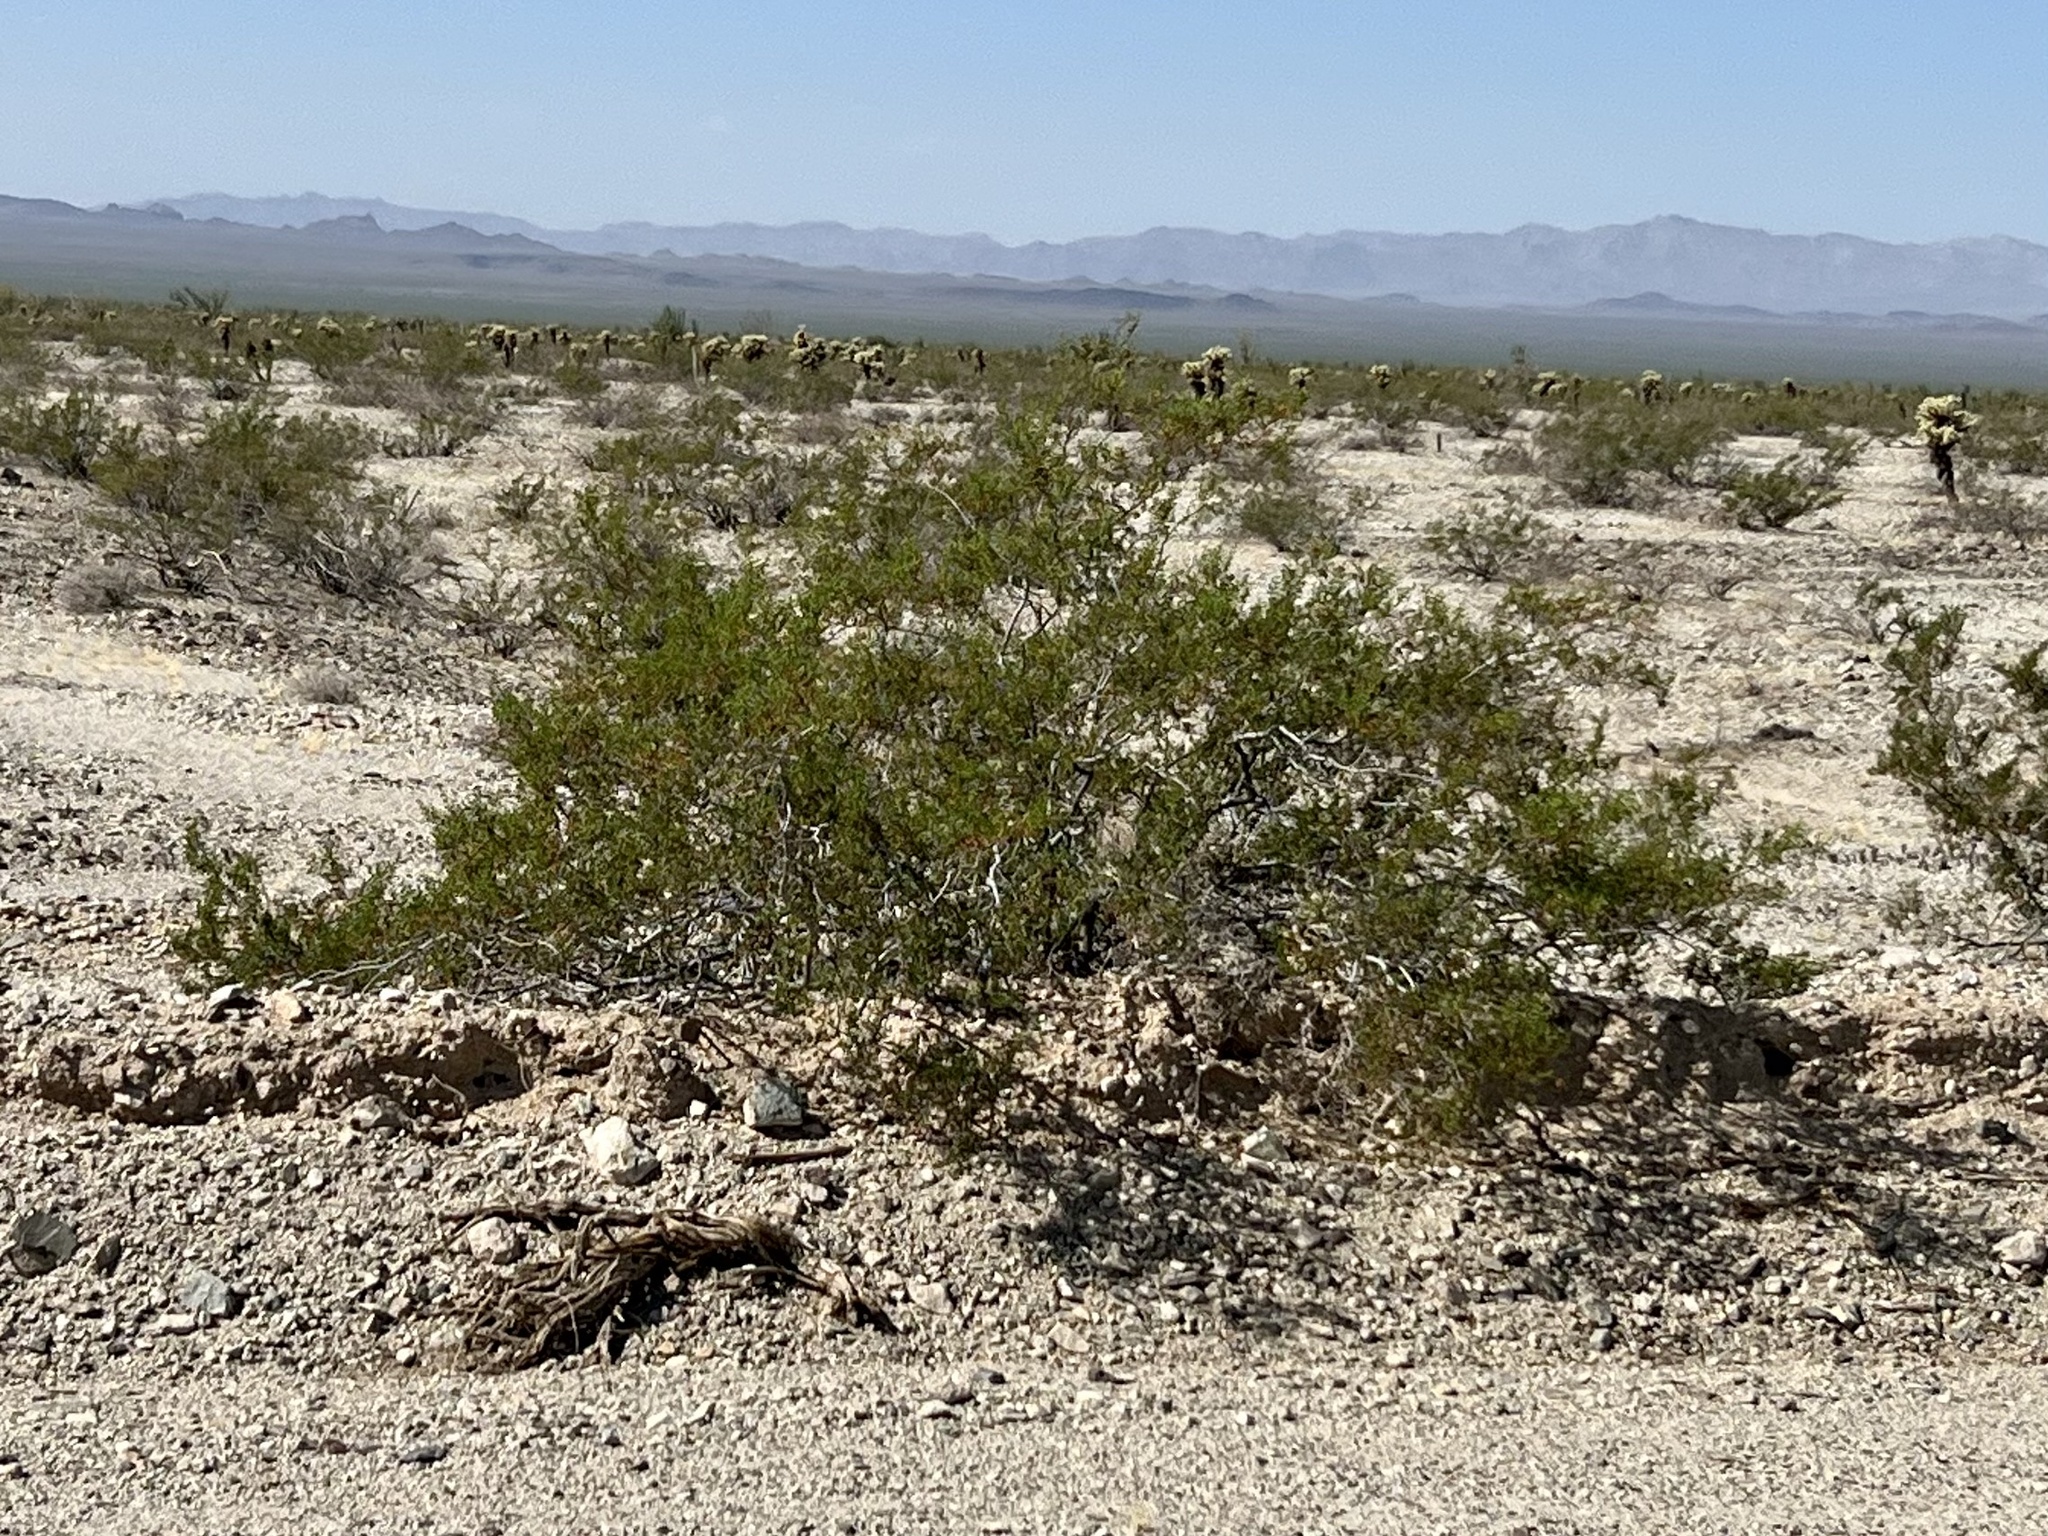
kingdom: Plantae
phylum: Tracheophyta
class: Magnoliopsida
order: Zygophyllales
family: Zygophyllaceae
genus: Larrea
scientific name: Larrea tridentata
